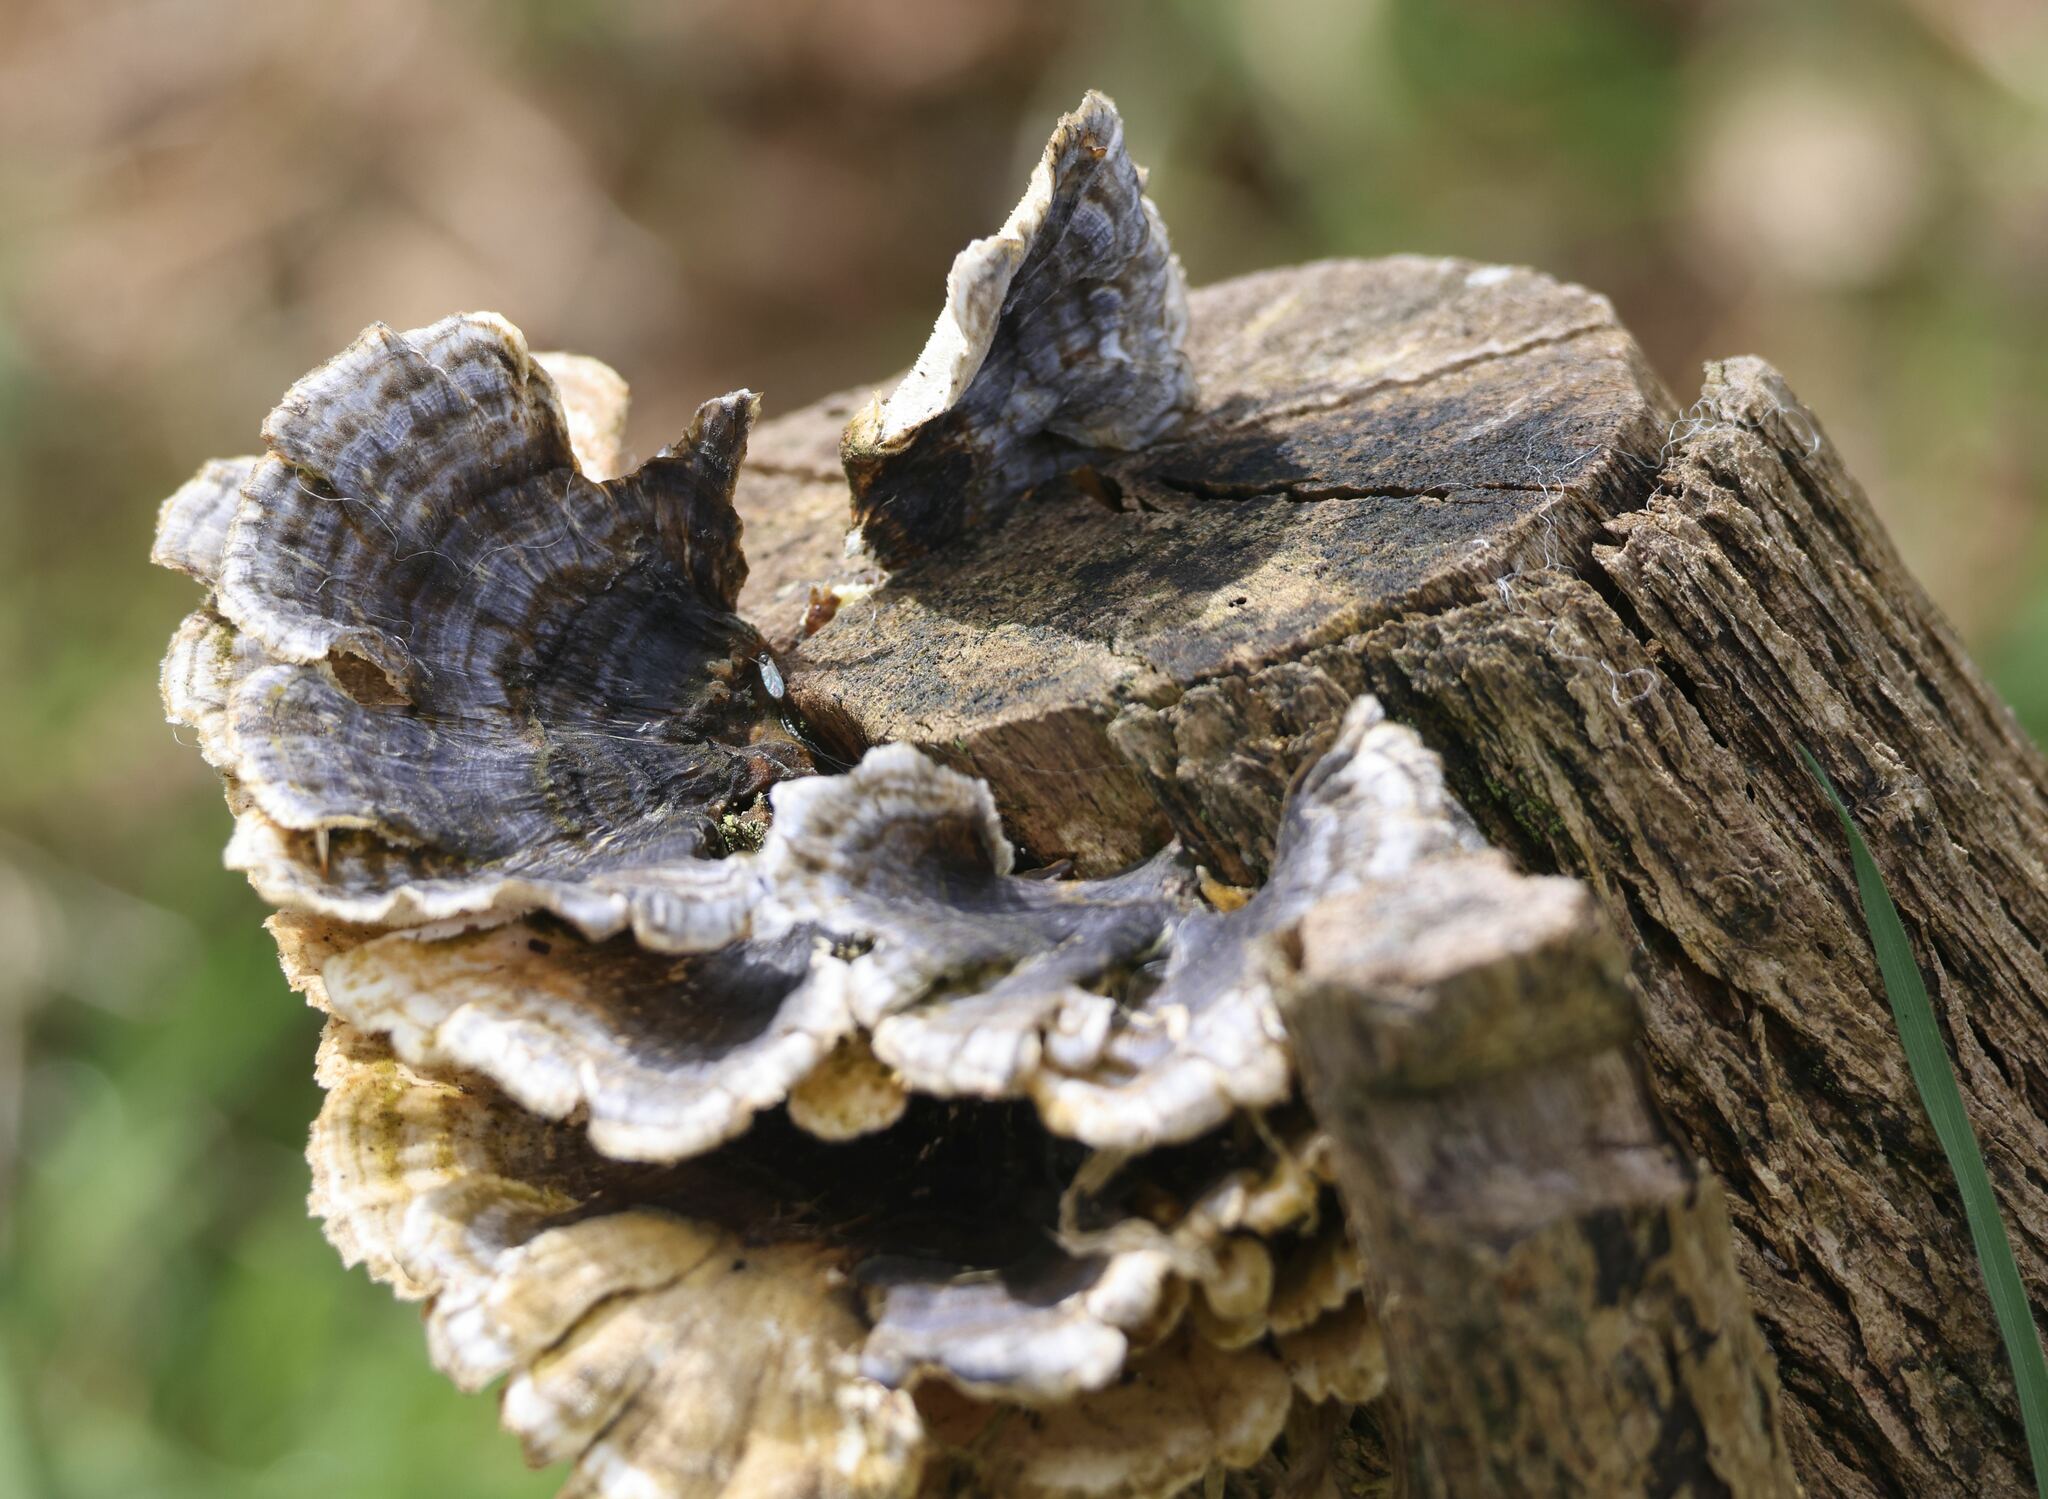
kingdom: Fungi
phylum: Basidiomycota
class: Agaricomycetes
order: Polyporales
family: Polyporaceae
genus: Trametes
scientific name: Trametes versicolor
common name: Turkeytail
